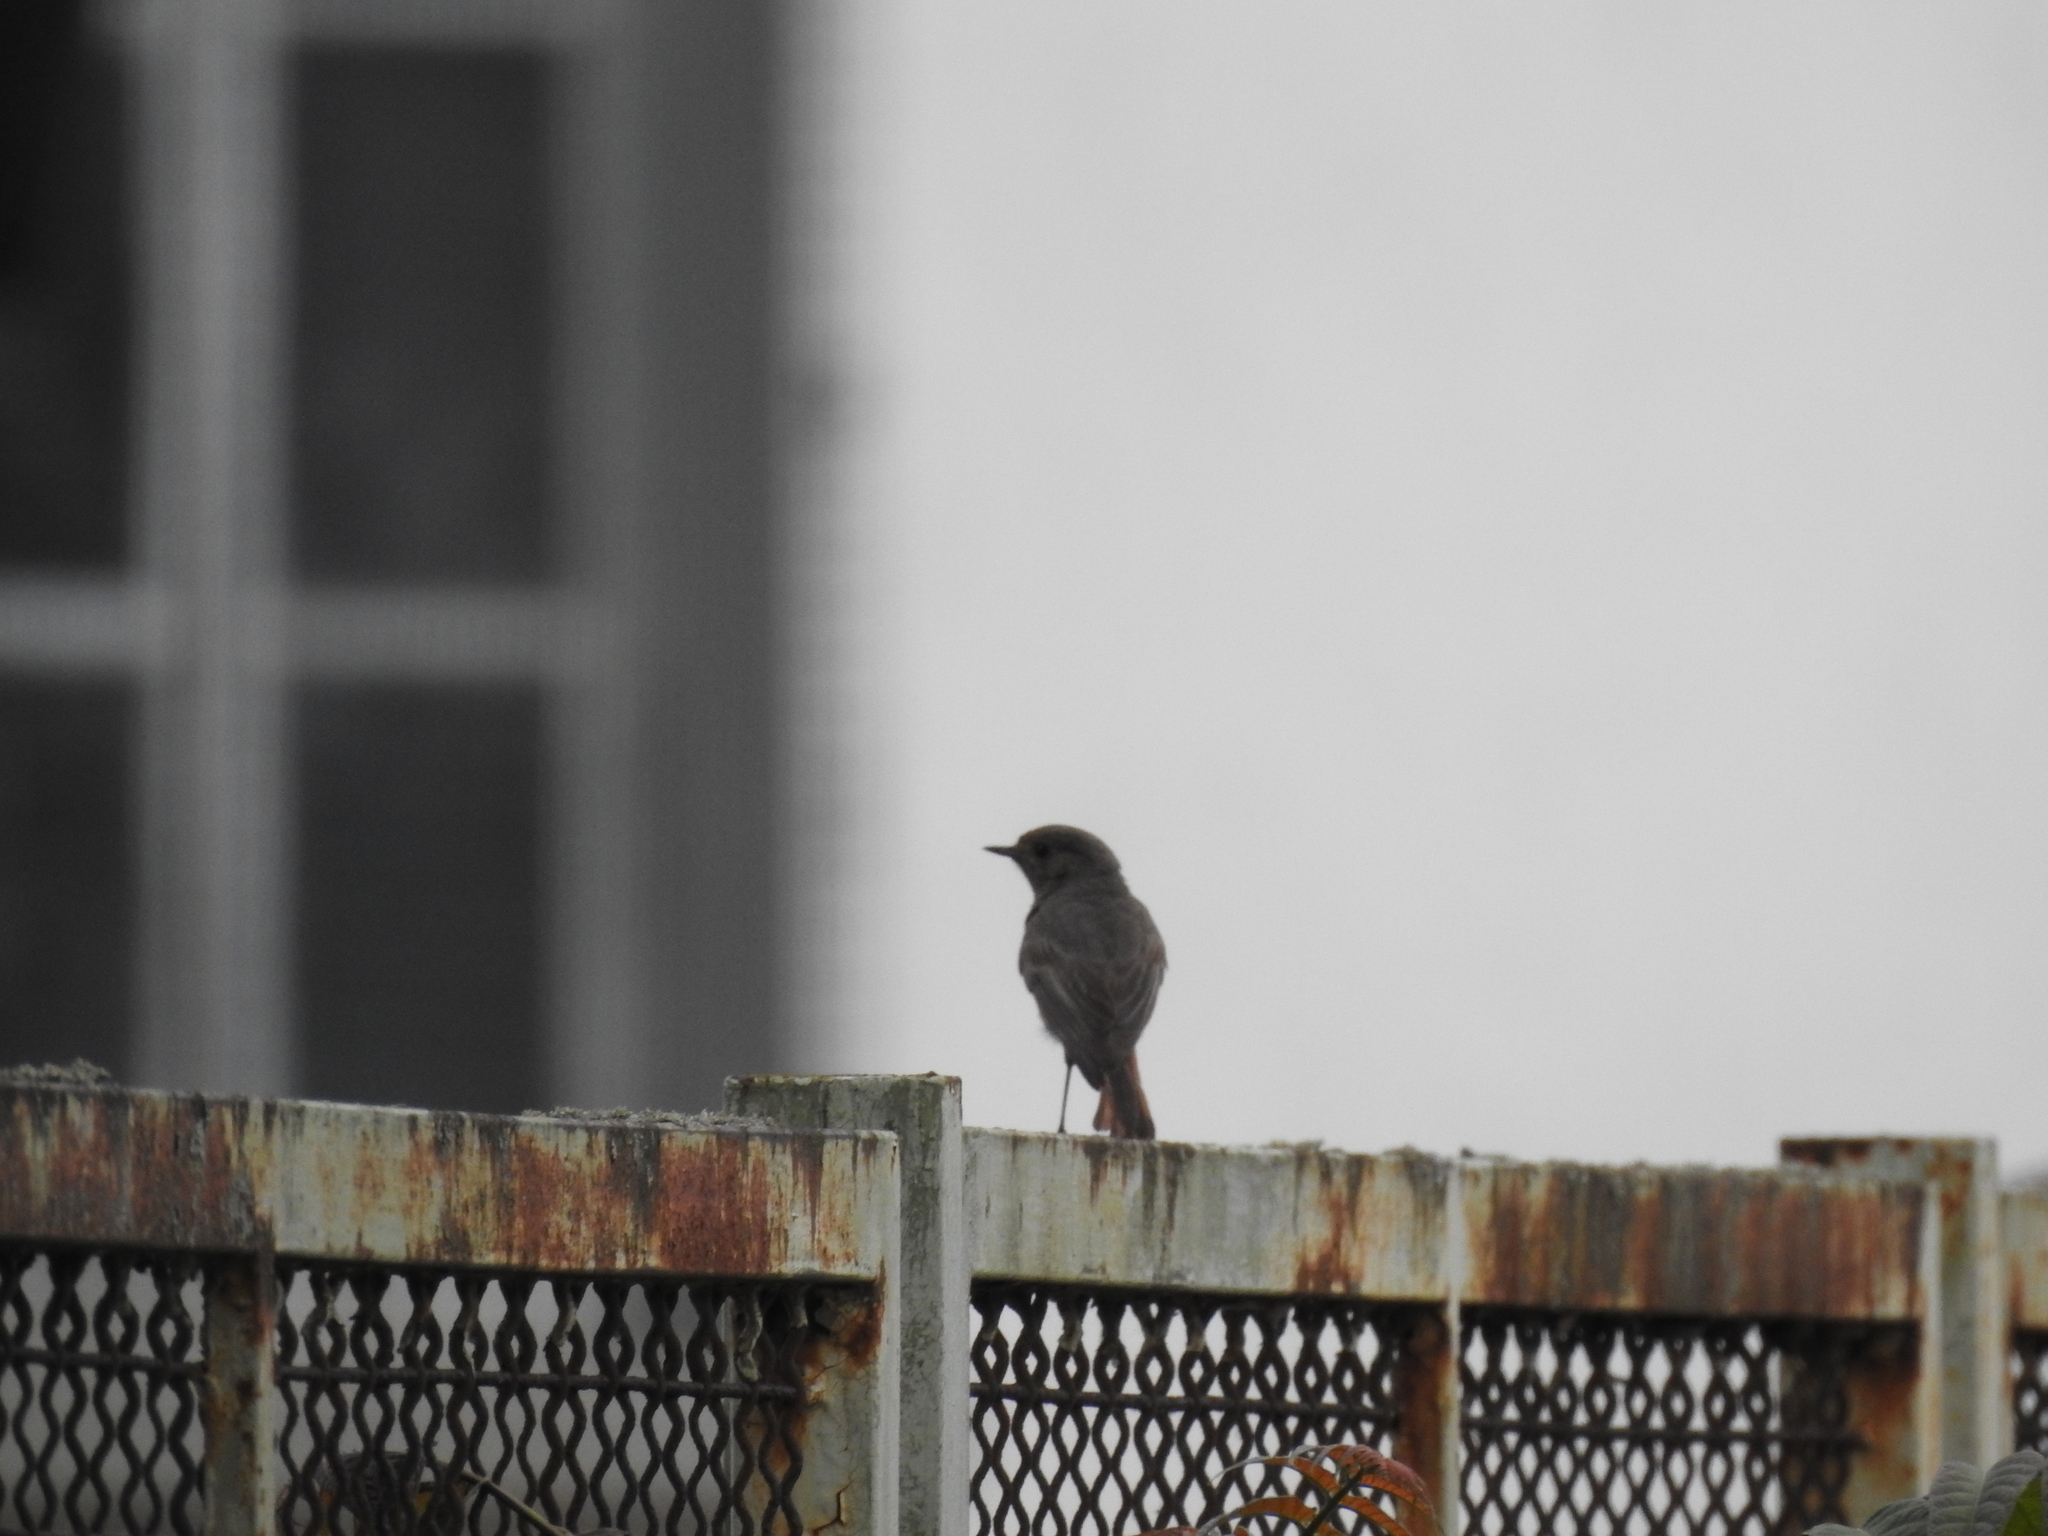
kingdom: Animalia
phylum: Chordata
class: Aves
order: Passeriformes
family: Muscicapidae
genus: Phoenicurus
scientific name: Phoenicurus ochruros
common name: Black redstart
